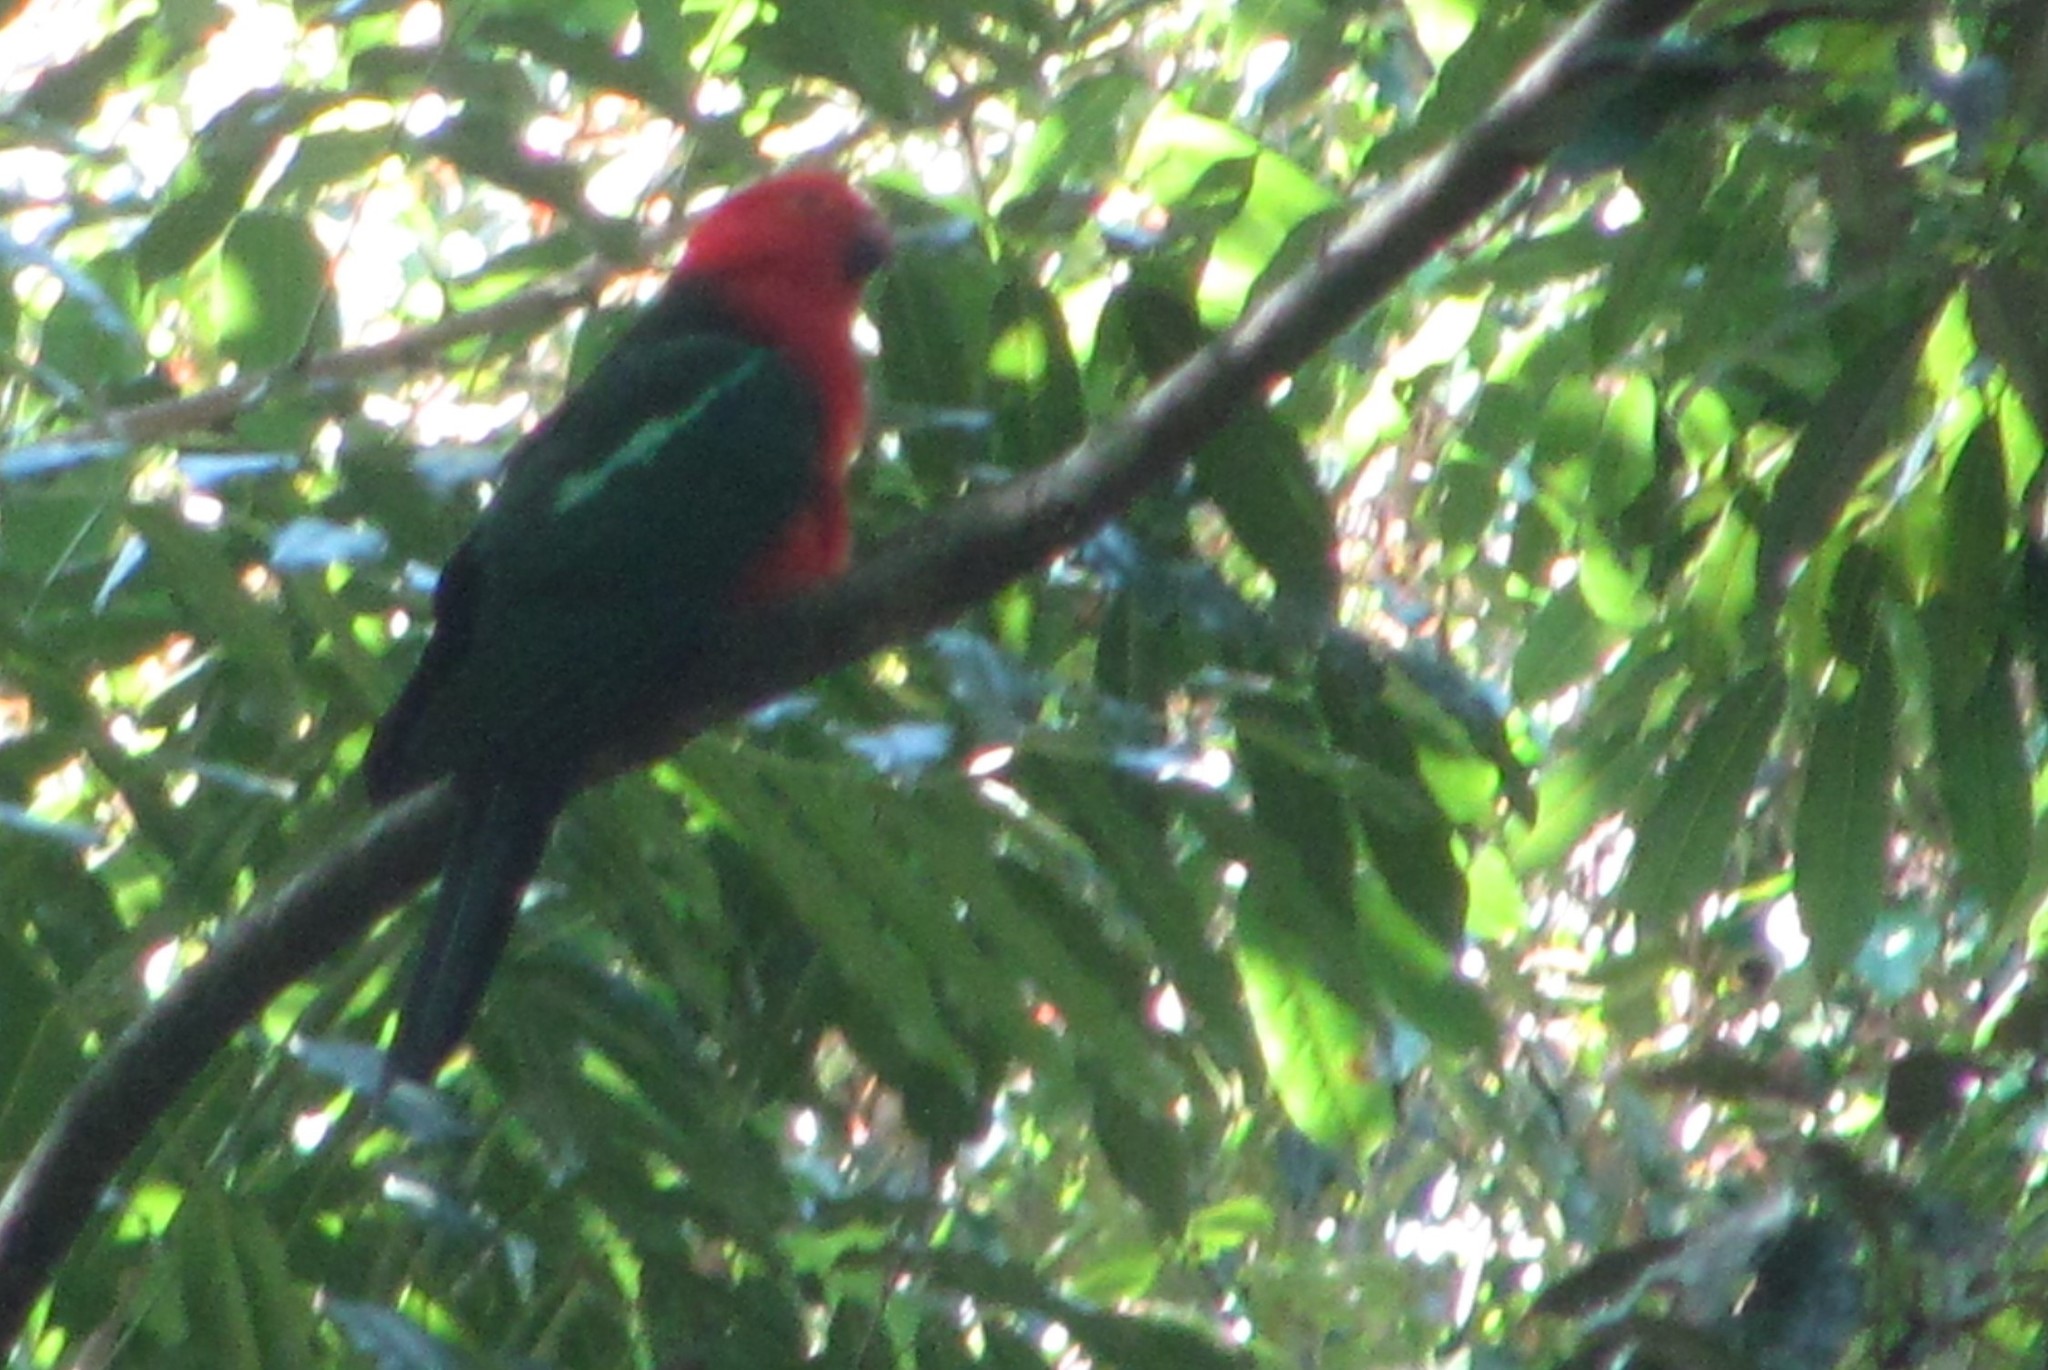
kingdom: Animalia
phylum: Chordata
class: Aves
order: Psittaciformes
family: Psittacidae
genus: Alisterus
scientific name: Alisterus scapularis
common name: Australian king parrot
